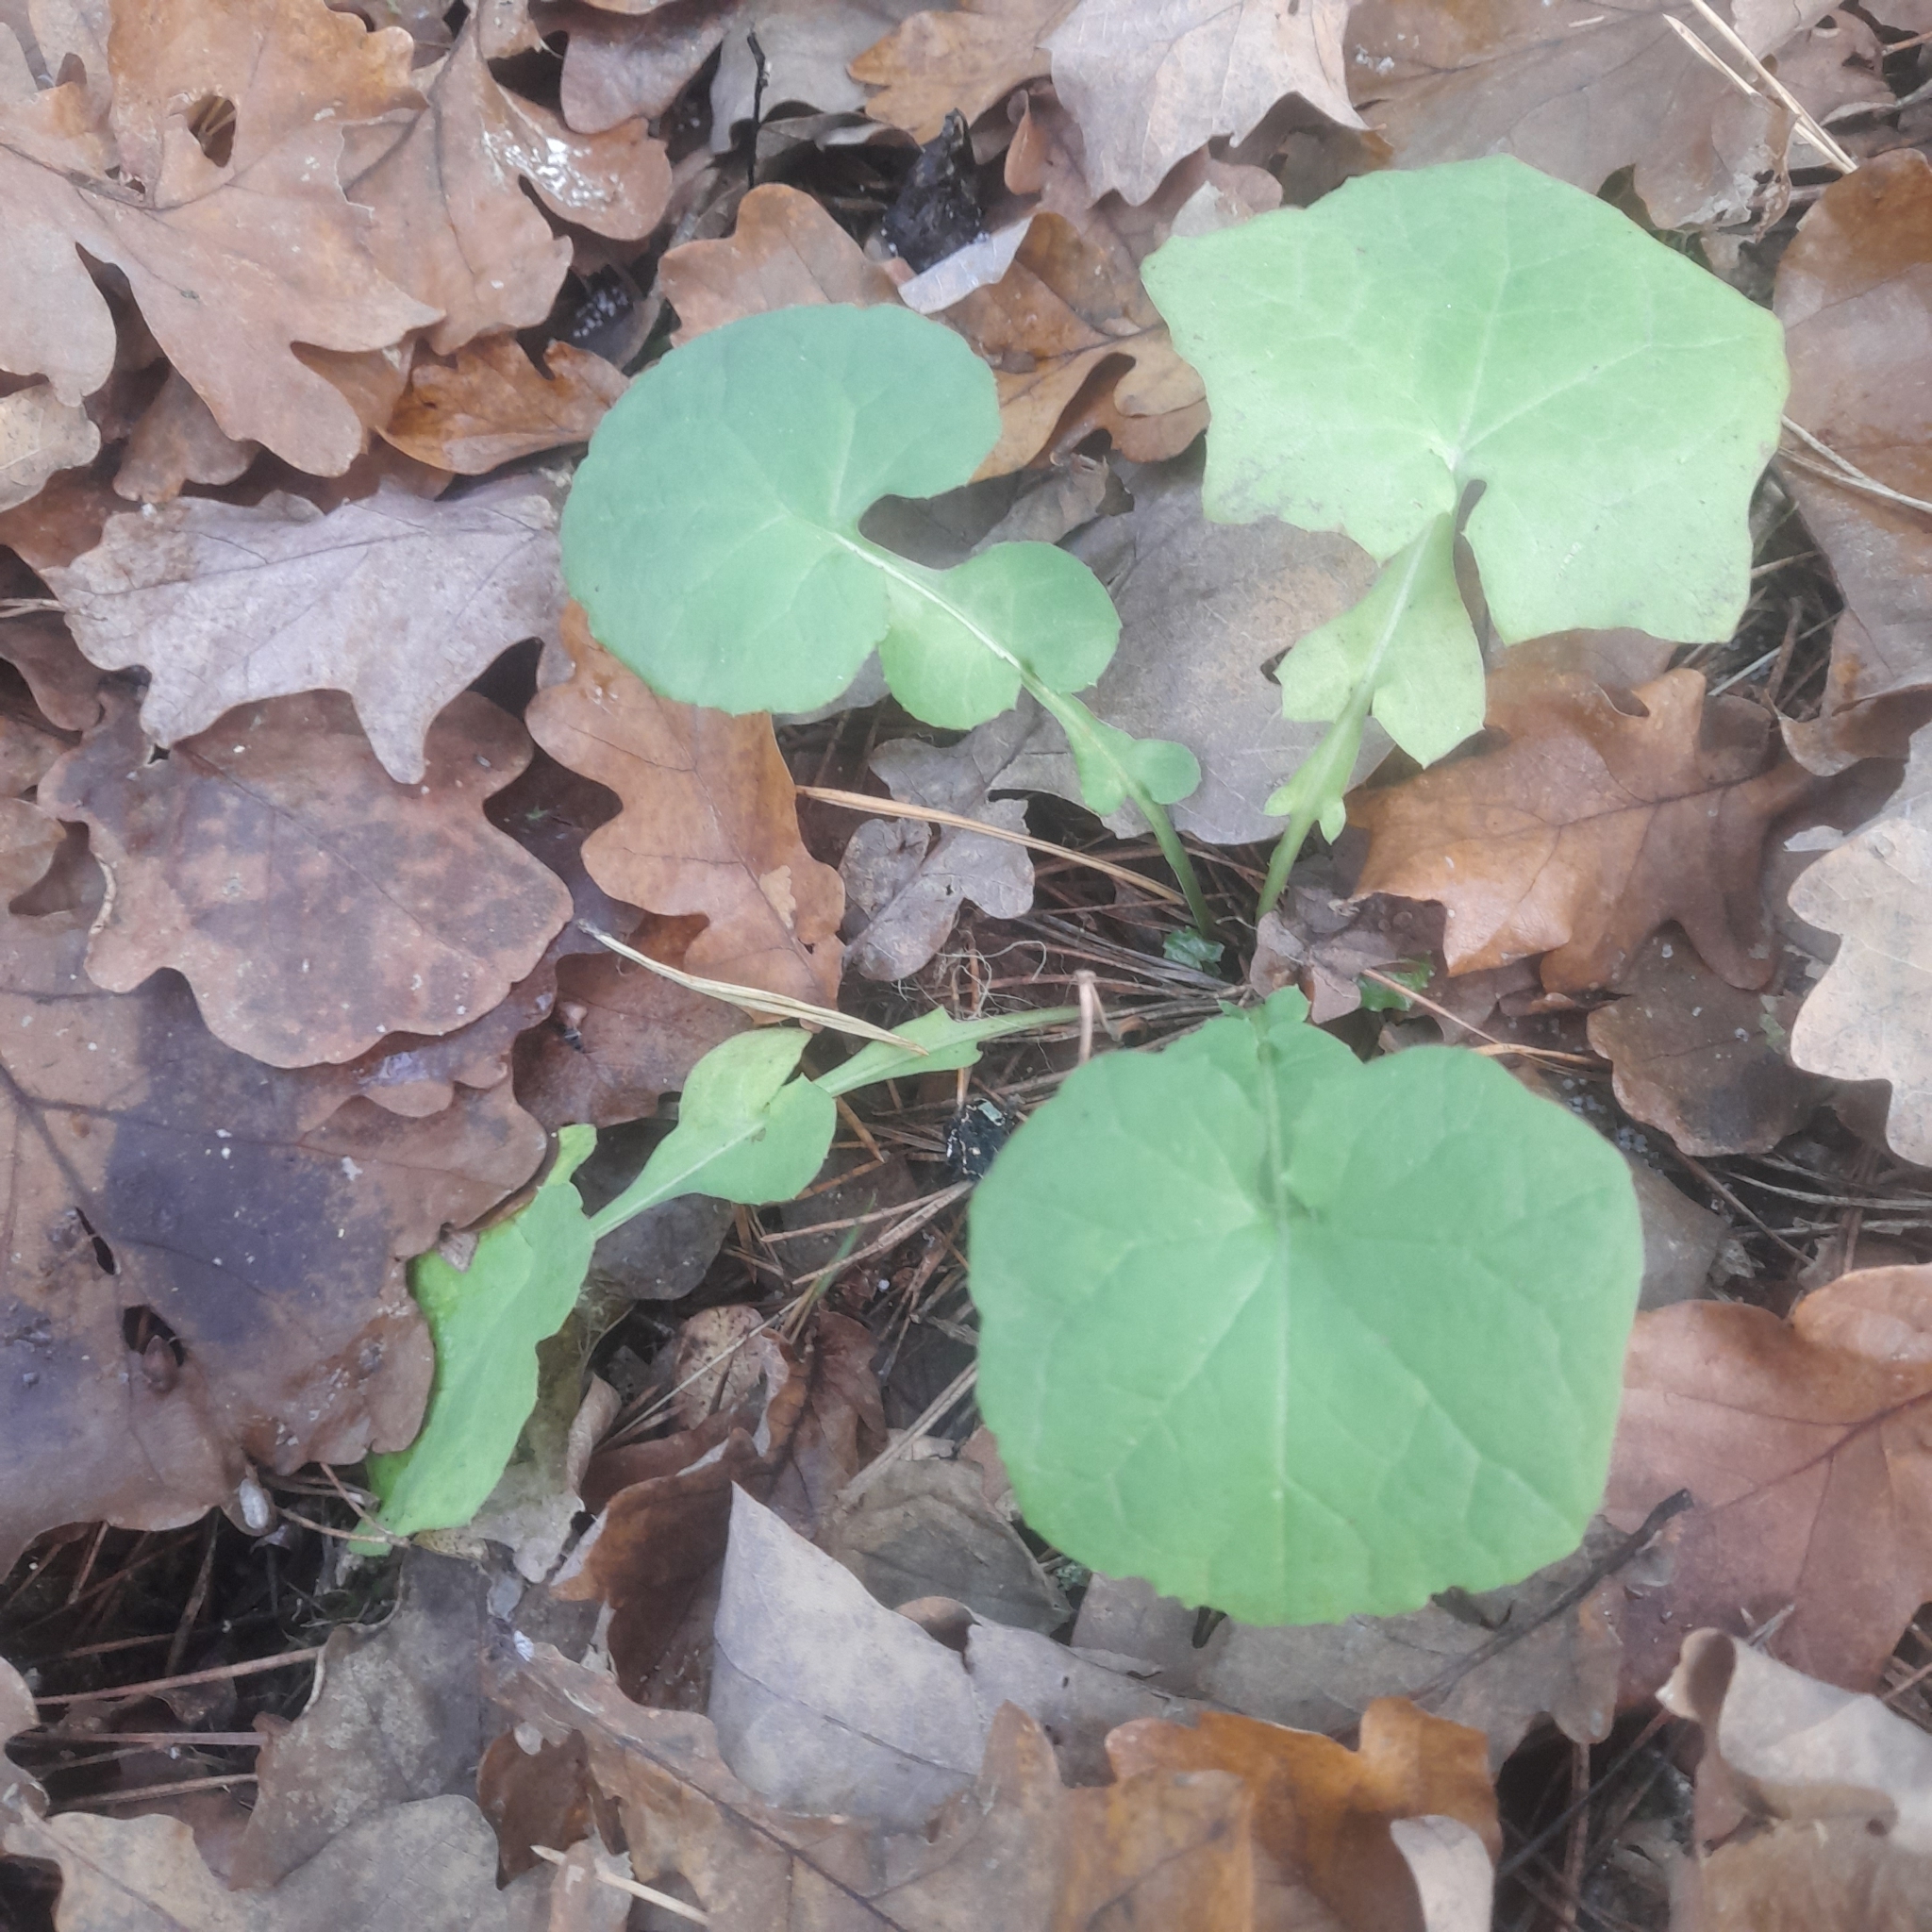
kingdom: Plantae
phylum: Tracheophyta
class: Magnoliopsida
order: Asterales
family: Asteraceae
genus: Mycelis
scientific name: Mycelis muralis
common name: Wall lettuce
